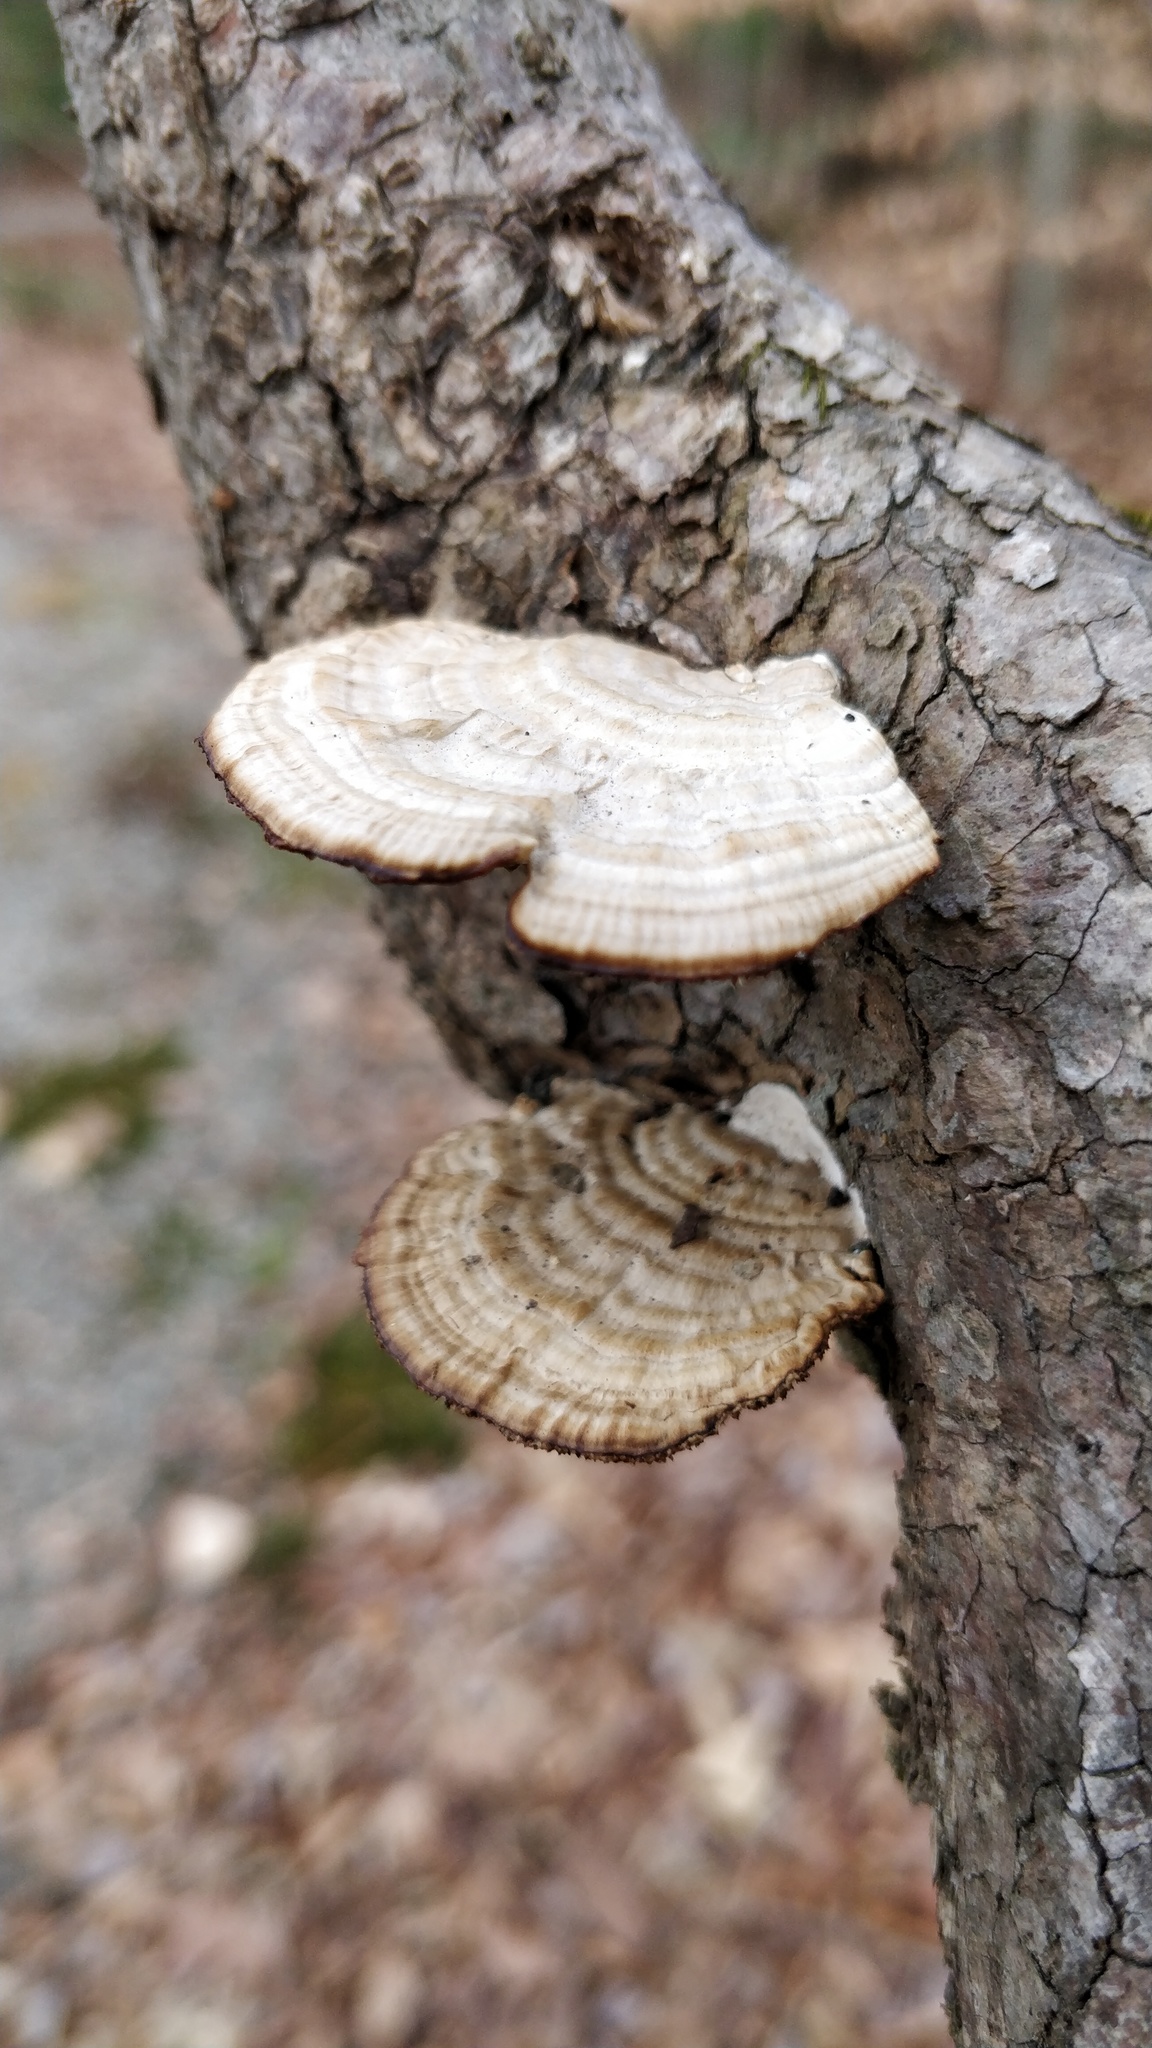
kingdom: Fungi
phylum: Basidiomycota
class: Agaricomycetes
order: Polyporales
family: Polyporaceae
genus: Daedaleopsis
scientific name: Daedaleopsis confragosa
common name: Blushing bracket
